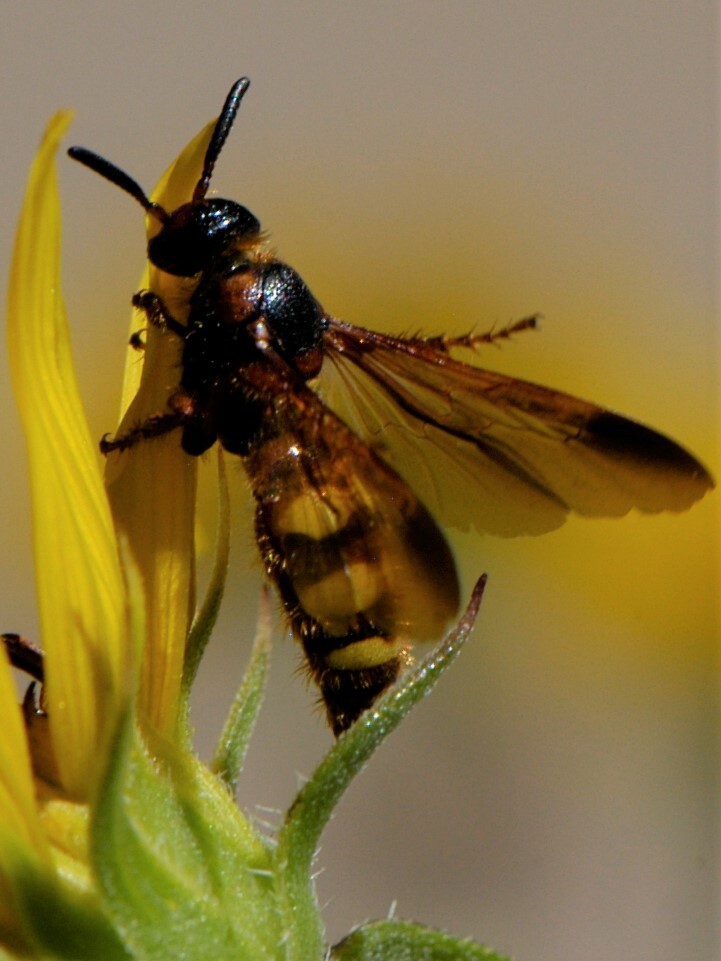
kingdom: Animalia
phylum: Arthropoda
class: Insecta
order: Hymenoptera
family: Scoliidae
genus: Scolia
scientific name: Scolia nobilitata
